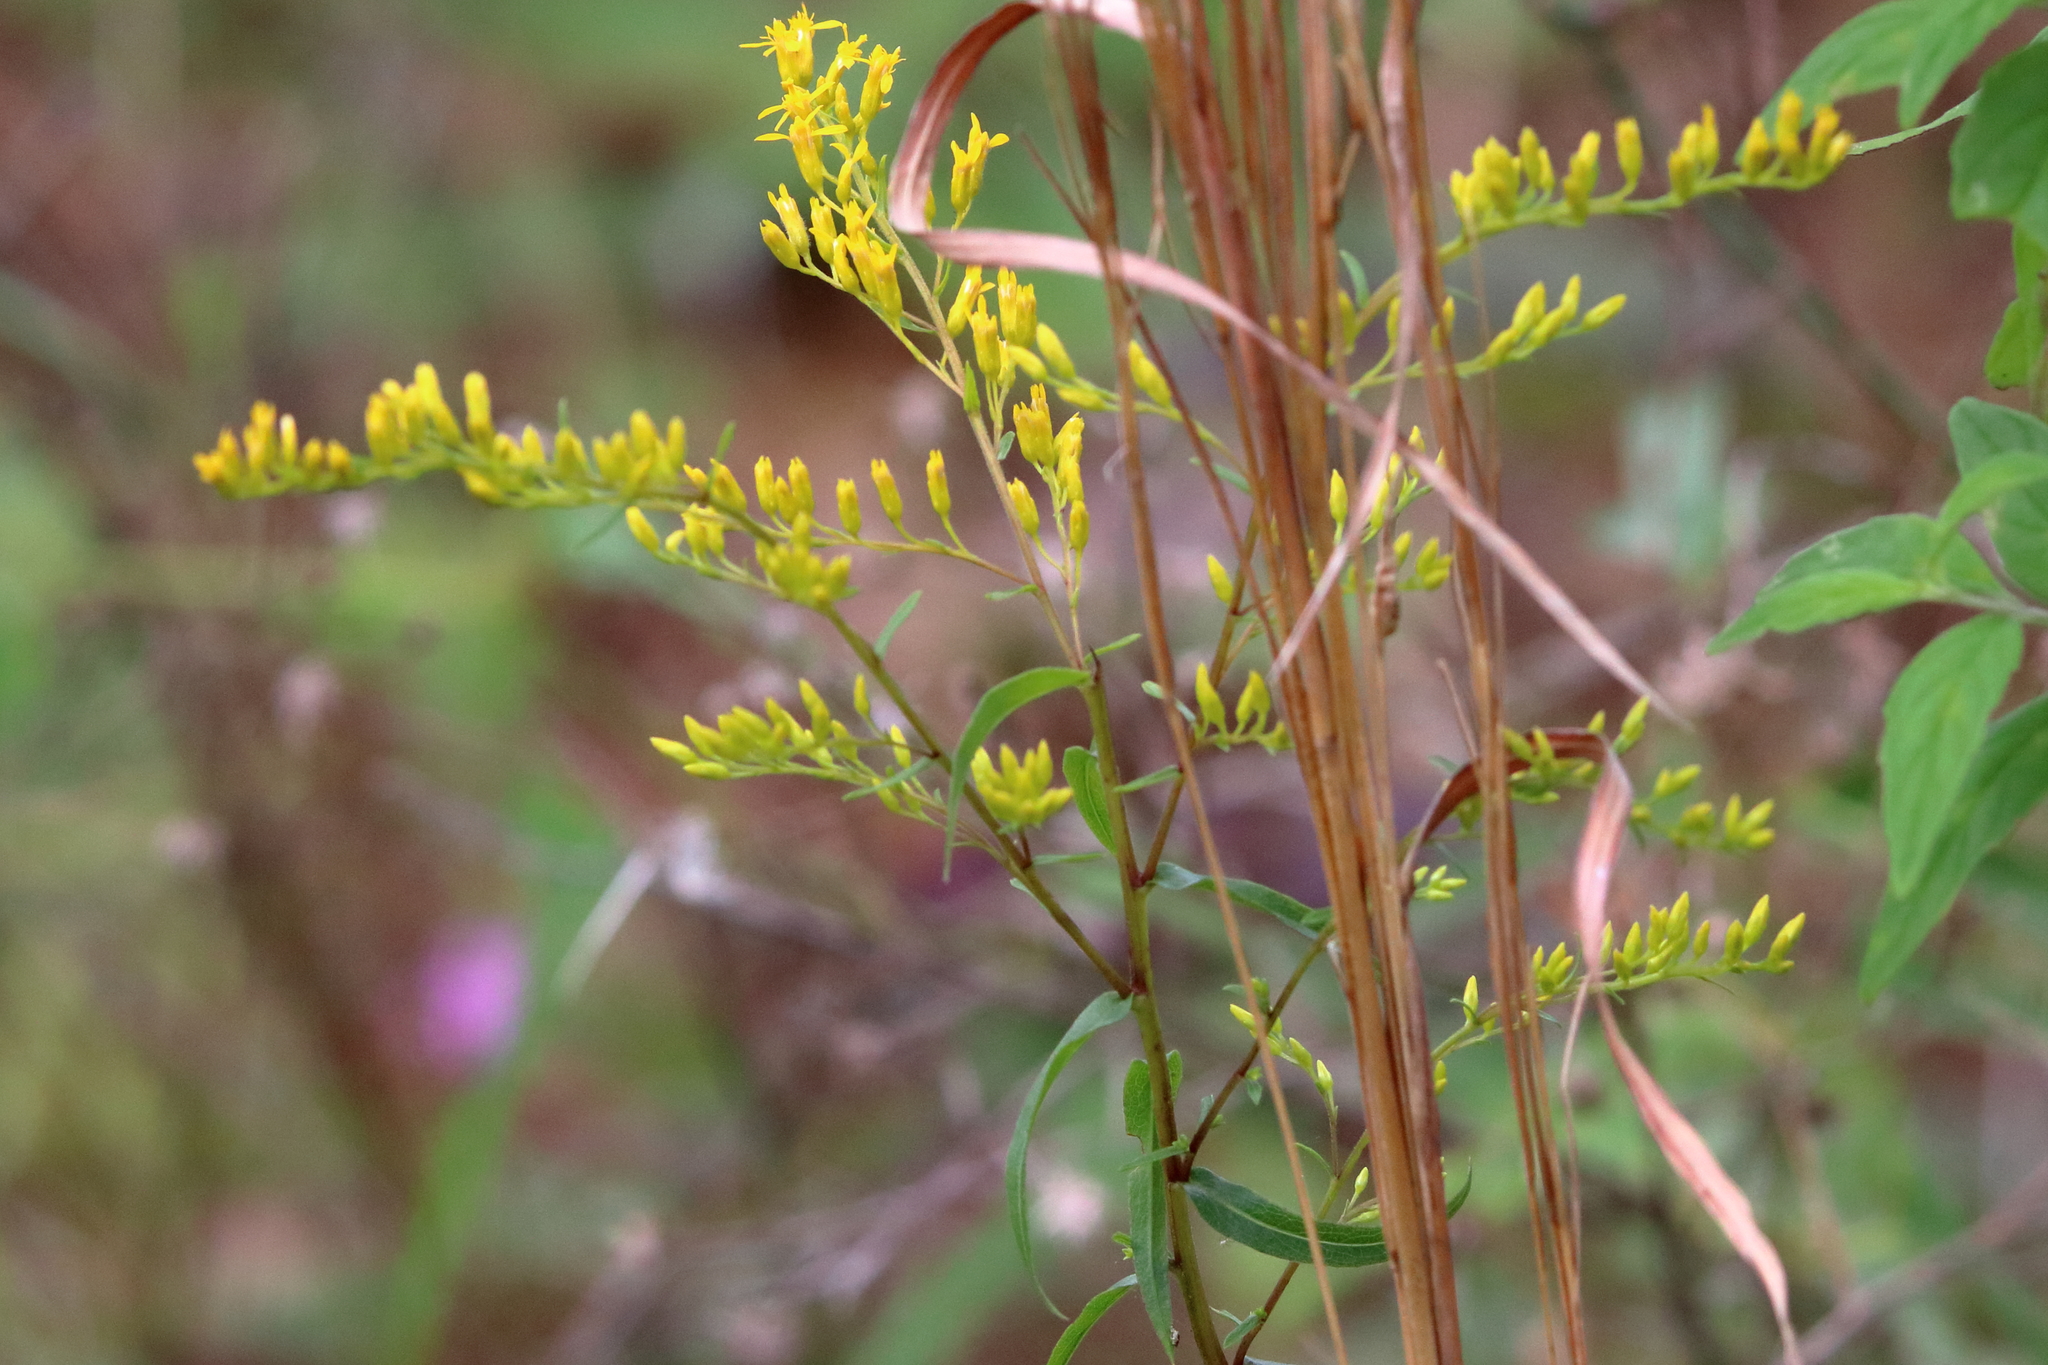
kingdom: Plantae
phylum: Tracheophyta
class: Magnoliopsida
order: Asterales
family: Asteraceae
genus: Solidago
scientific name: Solidago odora
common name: Anise-scented goldenrod
